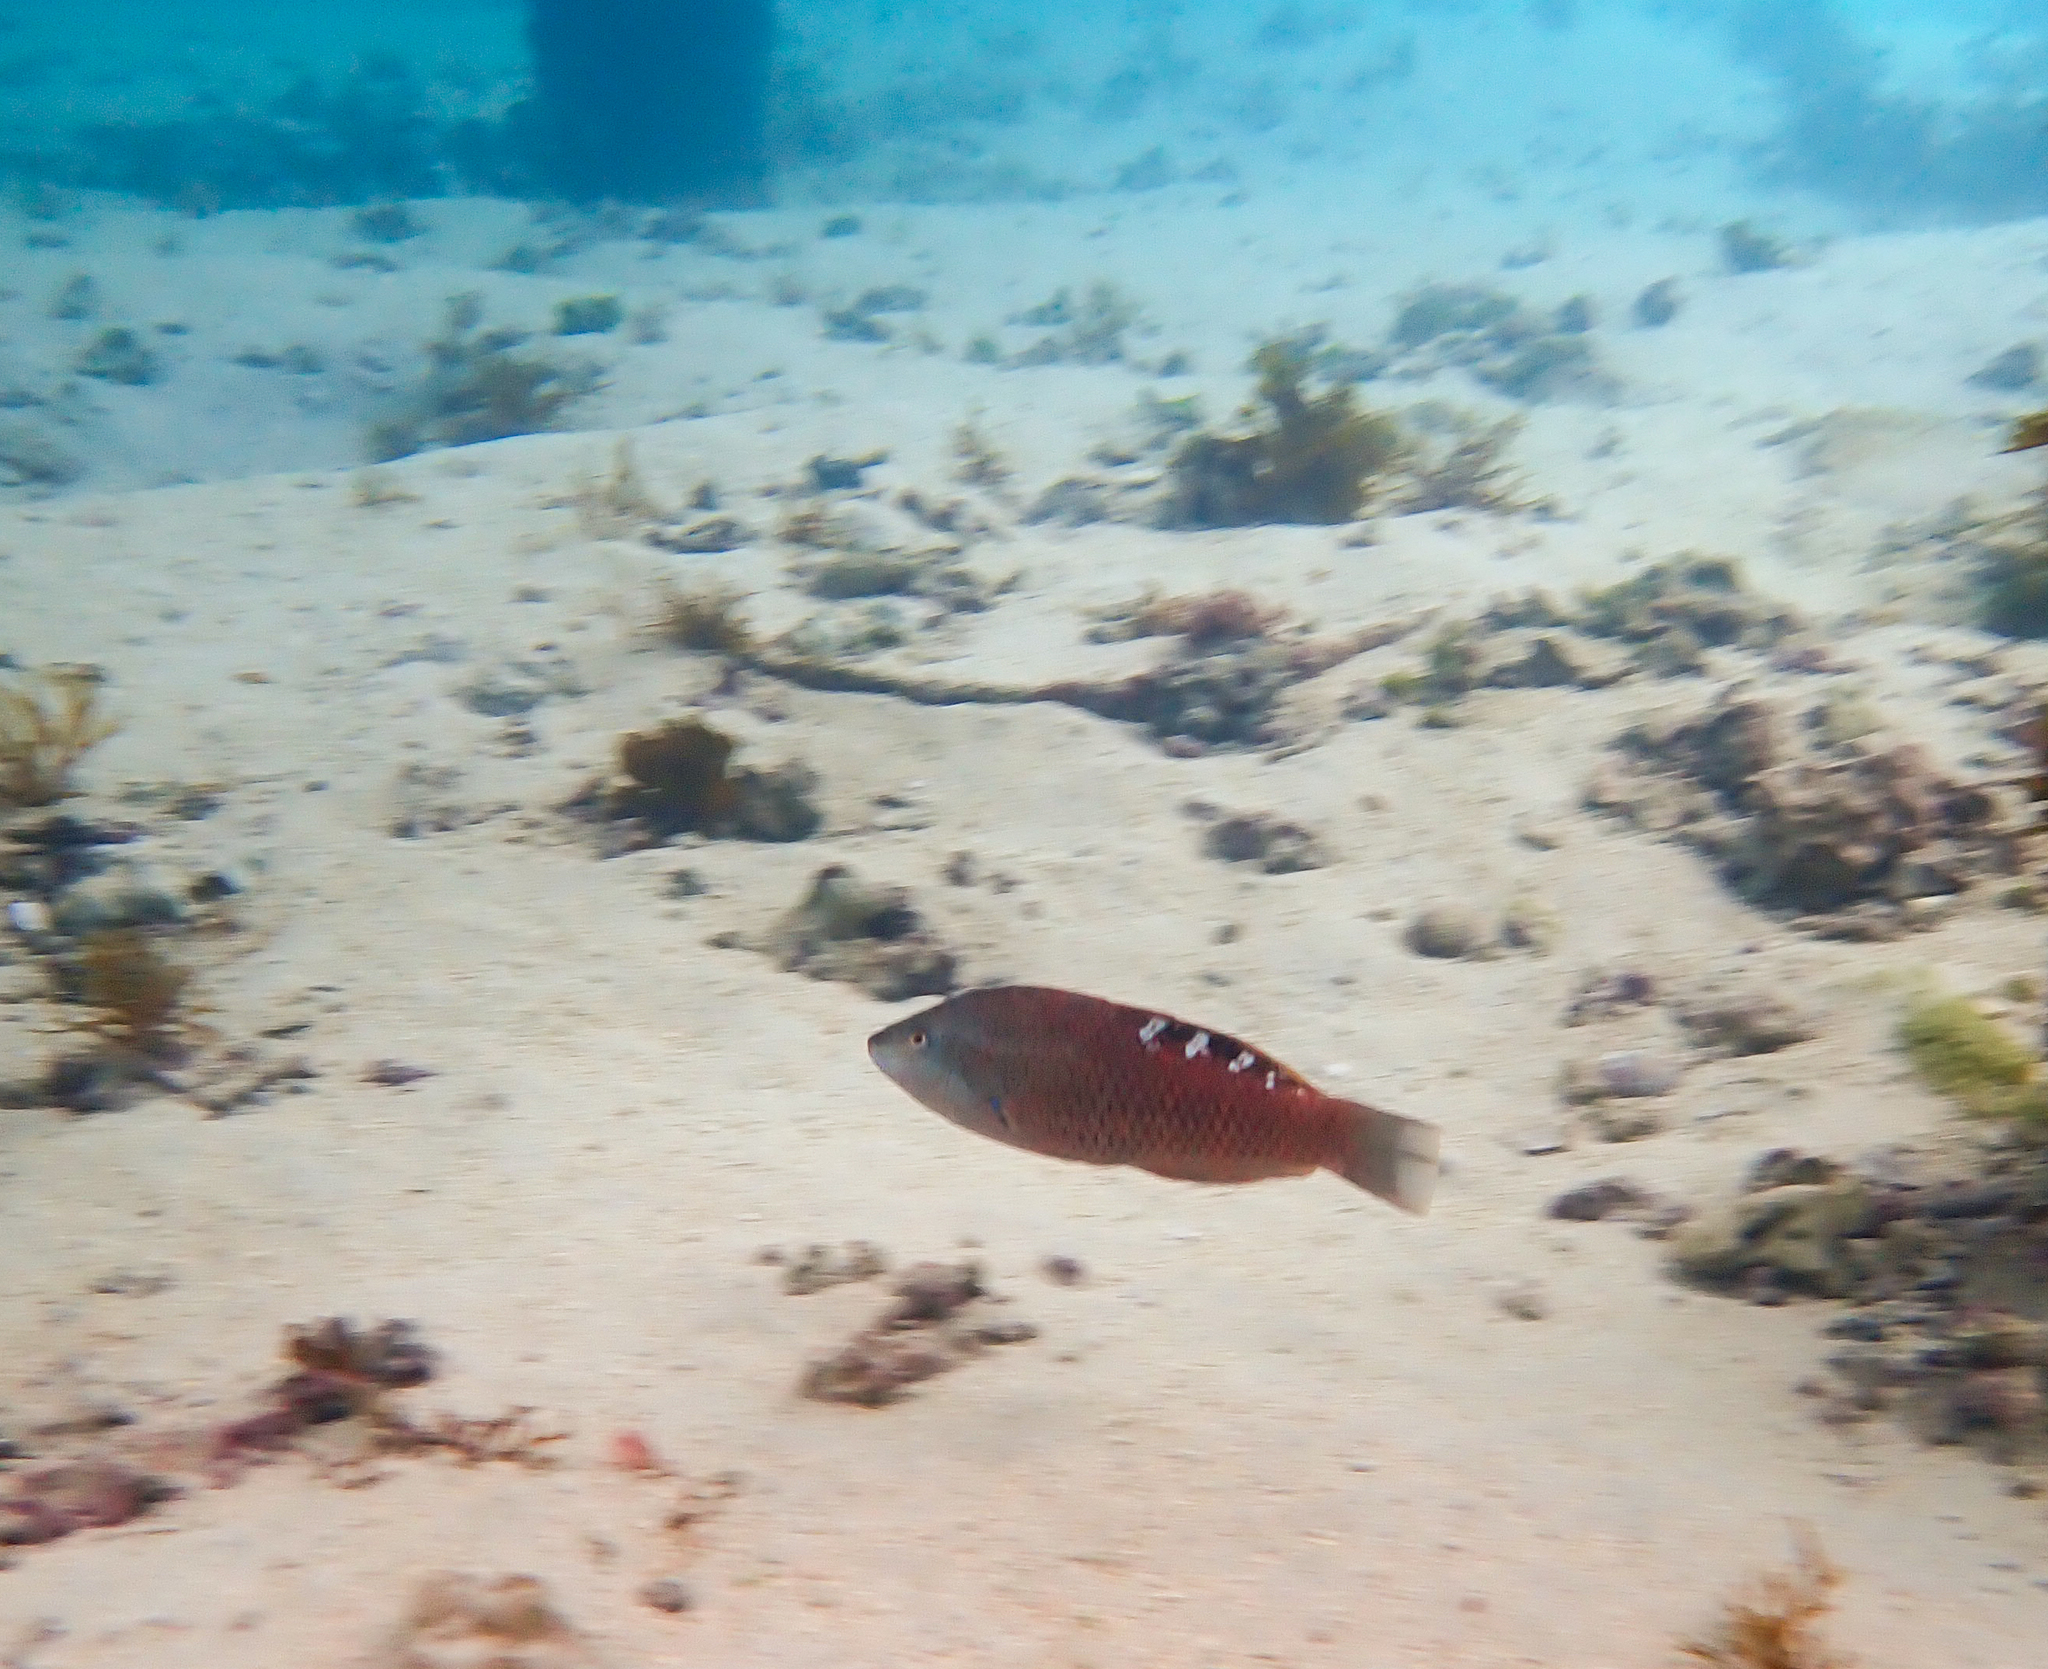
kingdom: Animalia
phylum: Chordata
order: Perciformes
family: Labridae
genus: Pseudolabrus
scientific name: Pseudolabrus luculentus
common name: Luculentus wrasse
